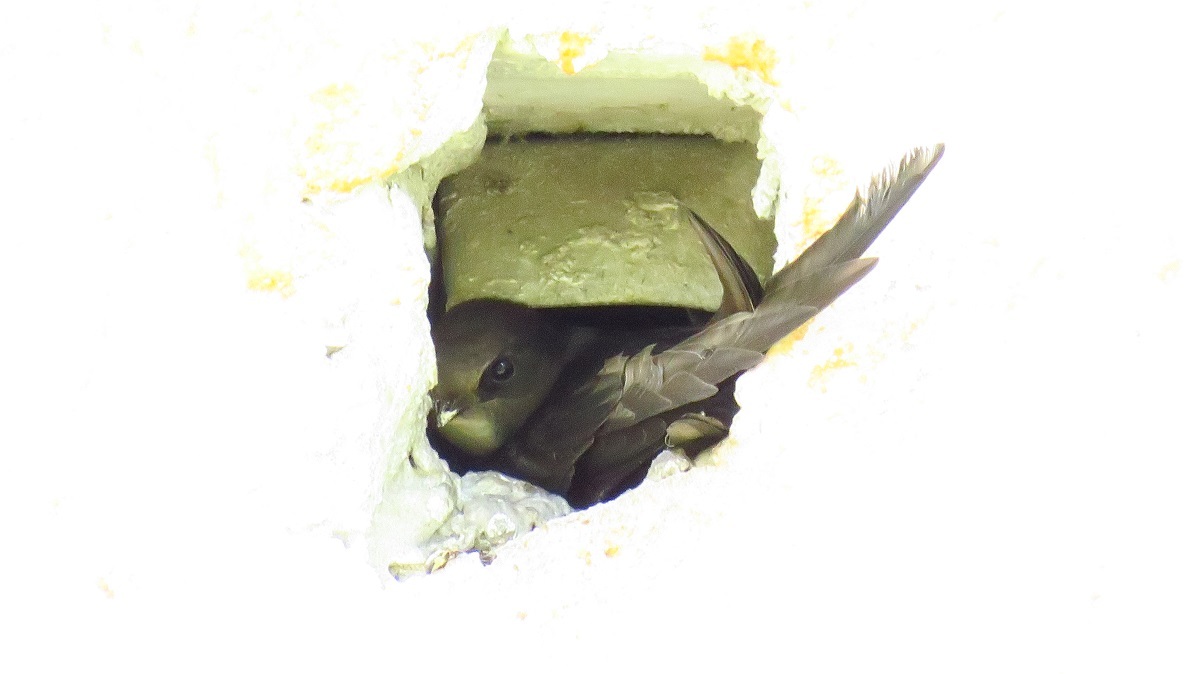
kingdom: Animalia
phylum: Chordata
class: Aves
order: Apodiformes
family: Apodidae
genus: Apus
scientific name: Apus apus
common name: Common swift
